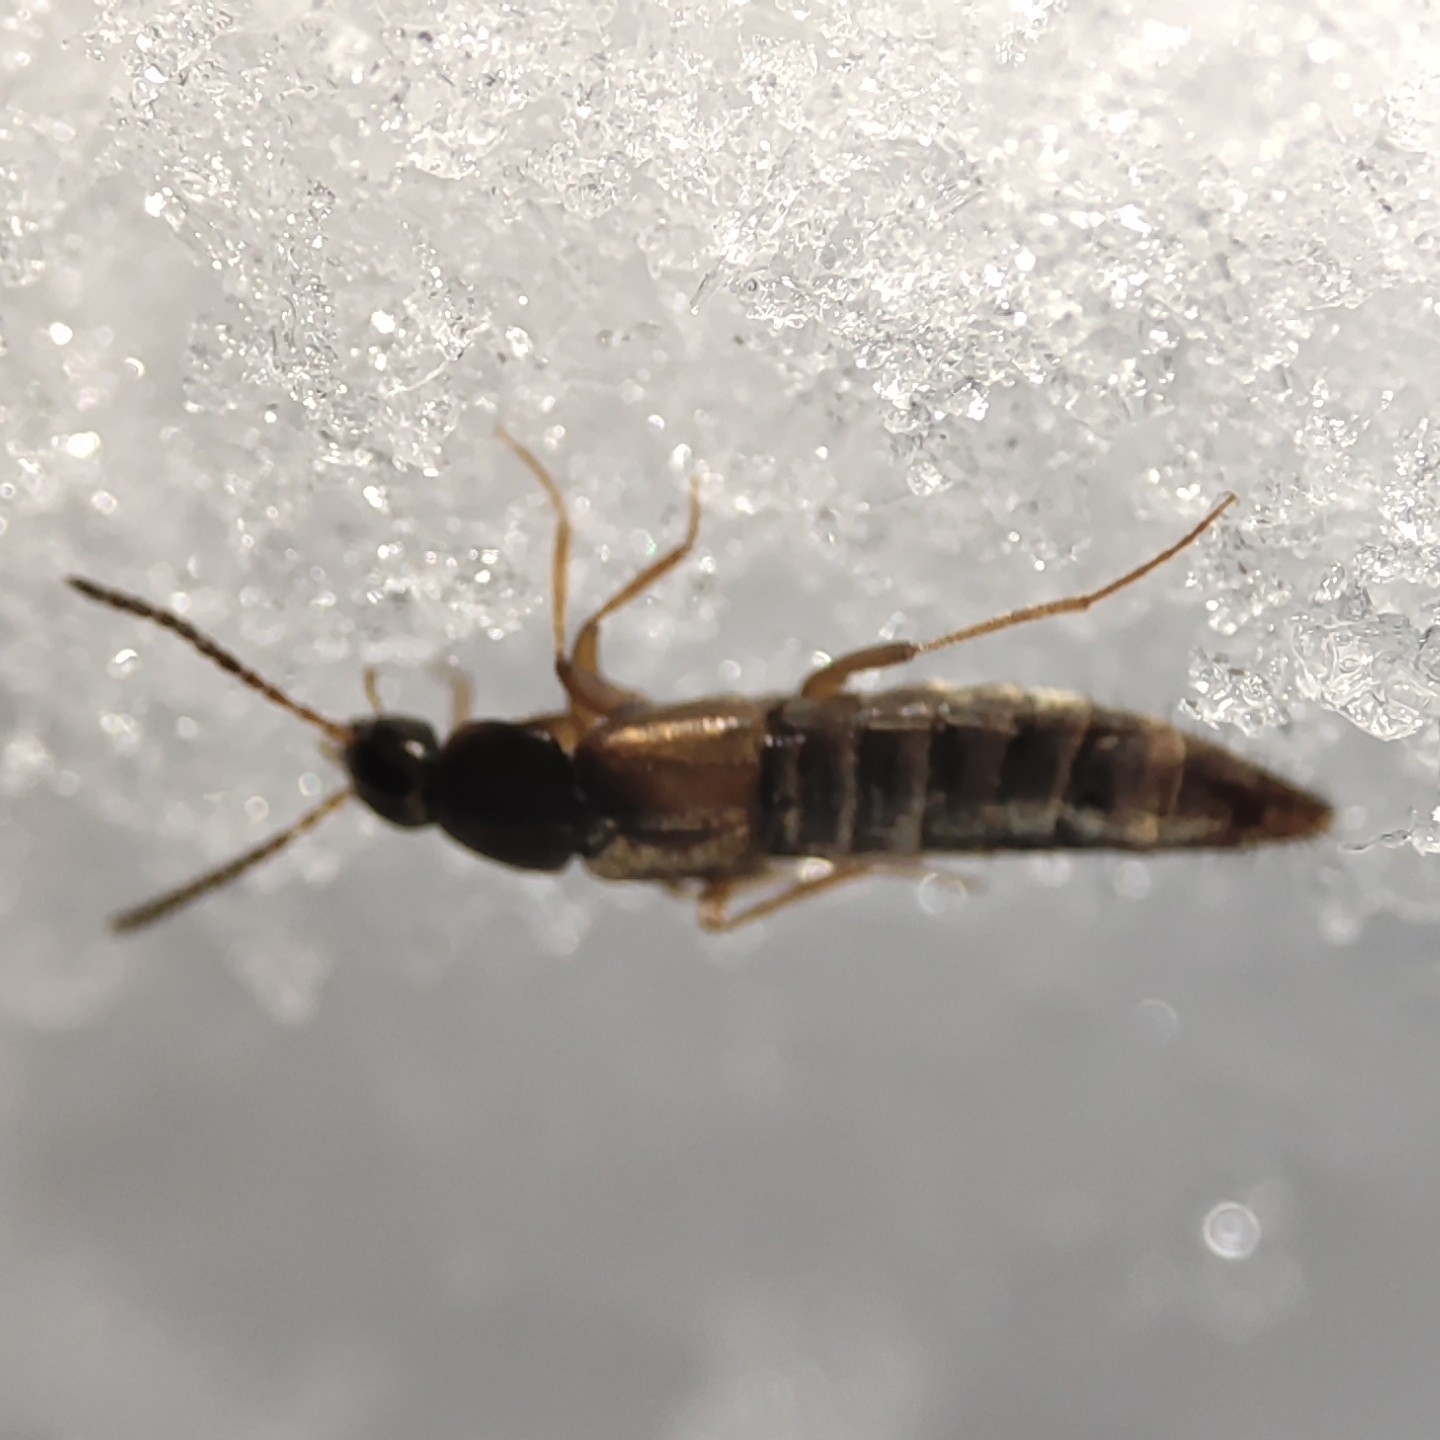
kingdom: Animalia
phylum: Arthropoda
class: Insecta
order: Coleoptera
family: Staphylinidae
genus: Oxypoda
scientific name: Oxypoda spectabilis
